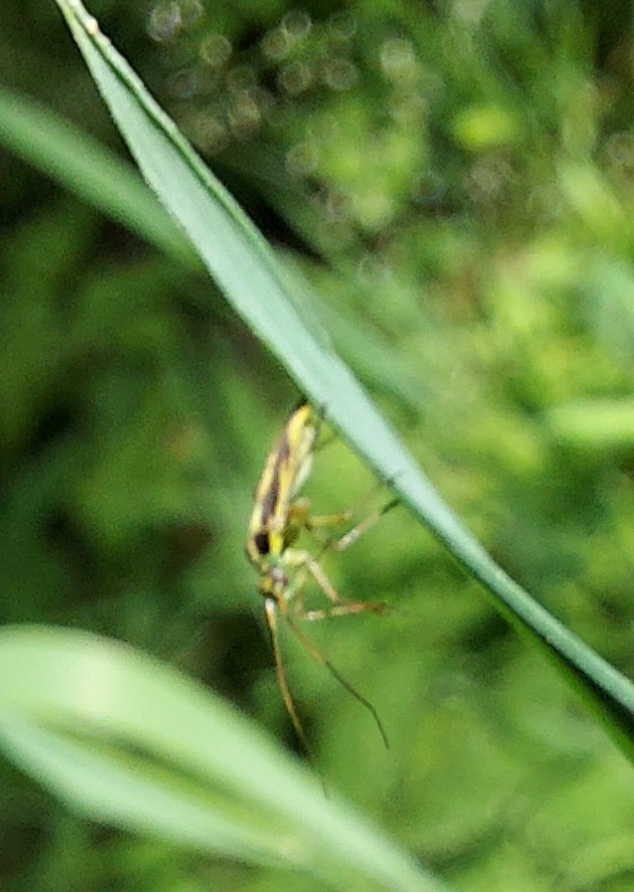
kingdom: Animalia
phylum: Arthropoda
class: Insecta
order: Hemiptera
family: Miridae
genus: Stenotus
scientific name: Stenotus binotatus
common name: Plant bug
